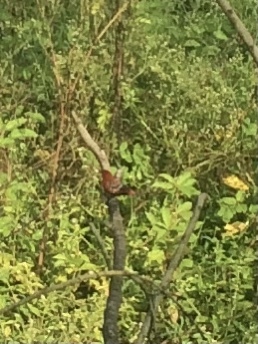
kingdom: Animalia
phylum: Chordata
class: Aves
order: Passeriformes
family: Estrildidae
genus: Amandava
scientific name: Amandava amandava
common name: Red avadavat
